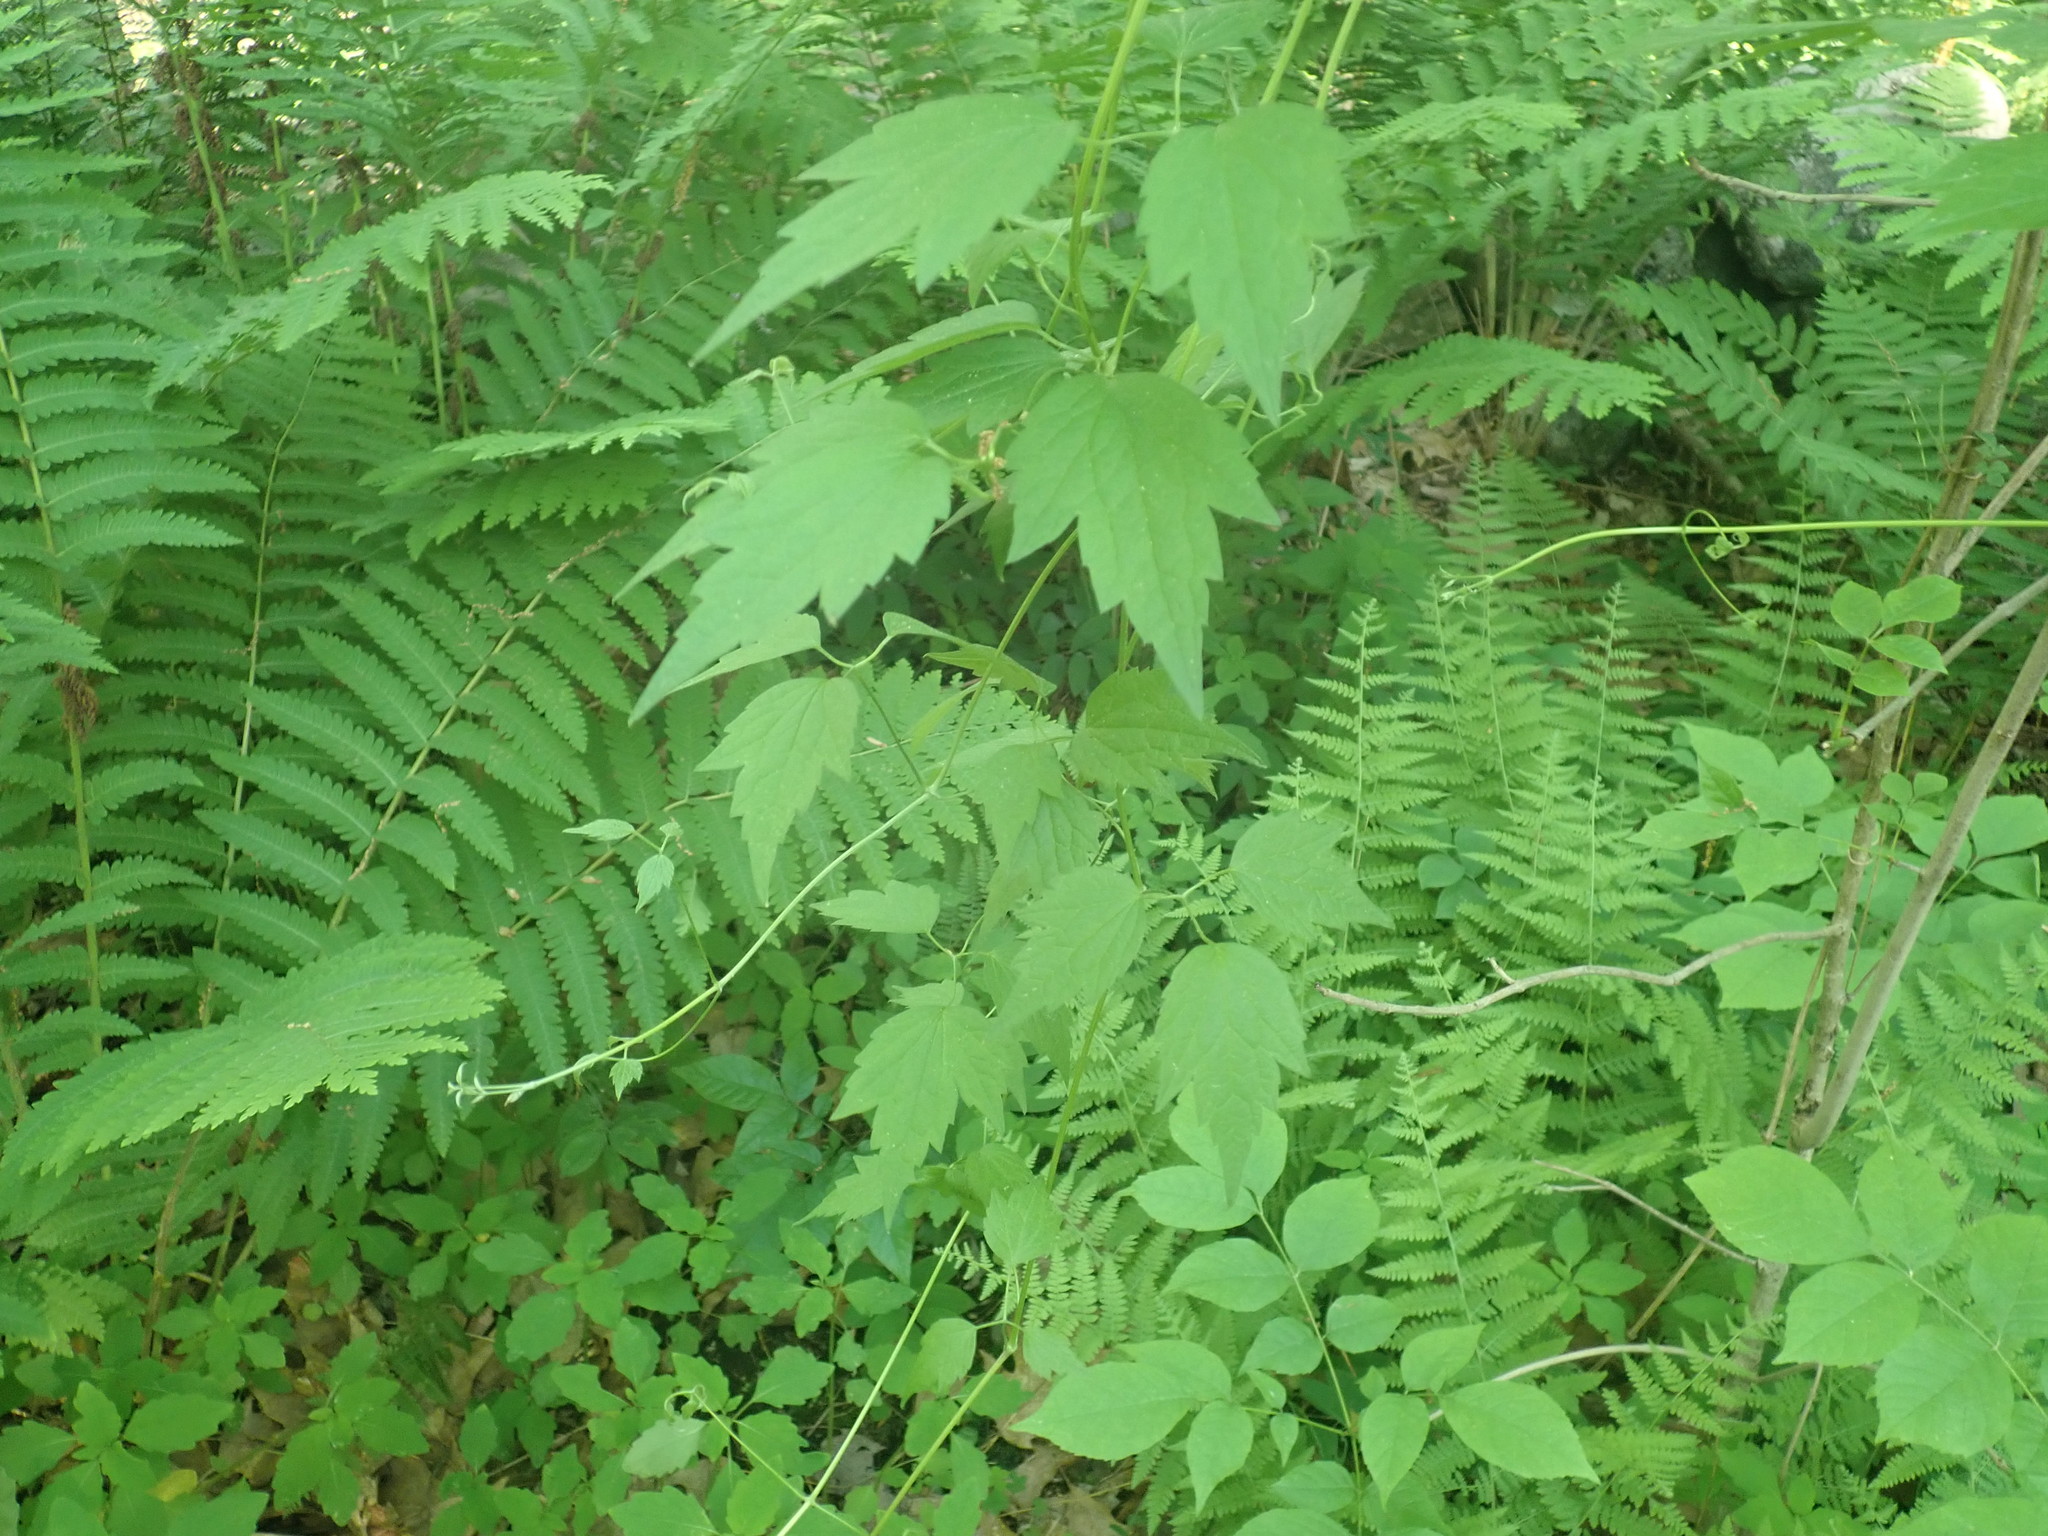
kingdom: Plantae
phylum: Tracheophyta
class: Magnoliopsida
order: Ranunculales
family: Ranunculaceae
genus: Clematis
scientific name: Clematis virginiana
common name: Virgin's-bower
